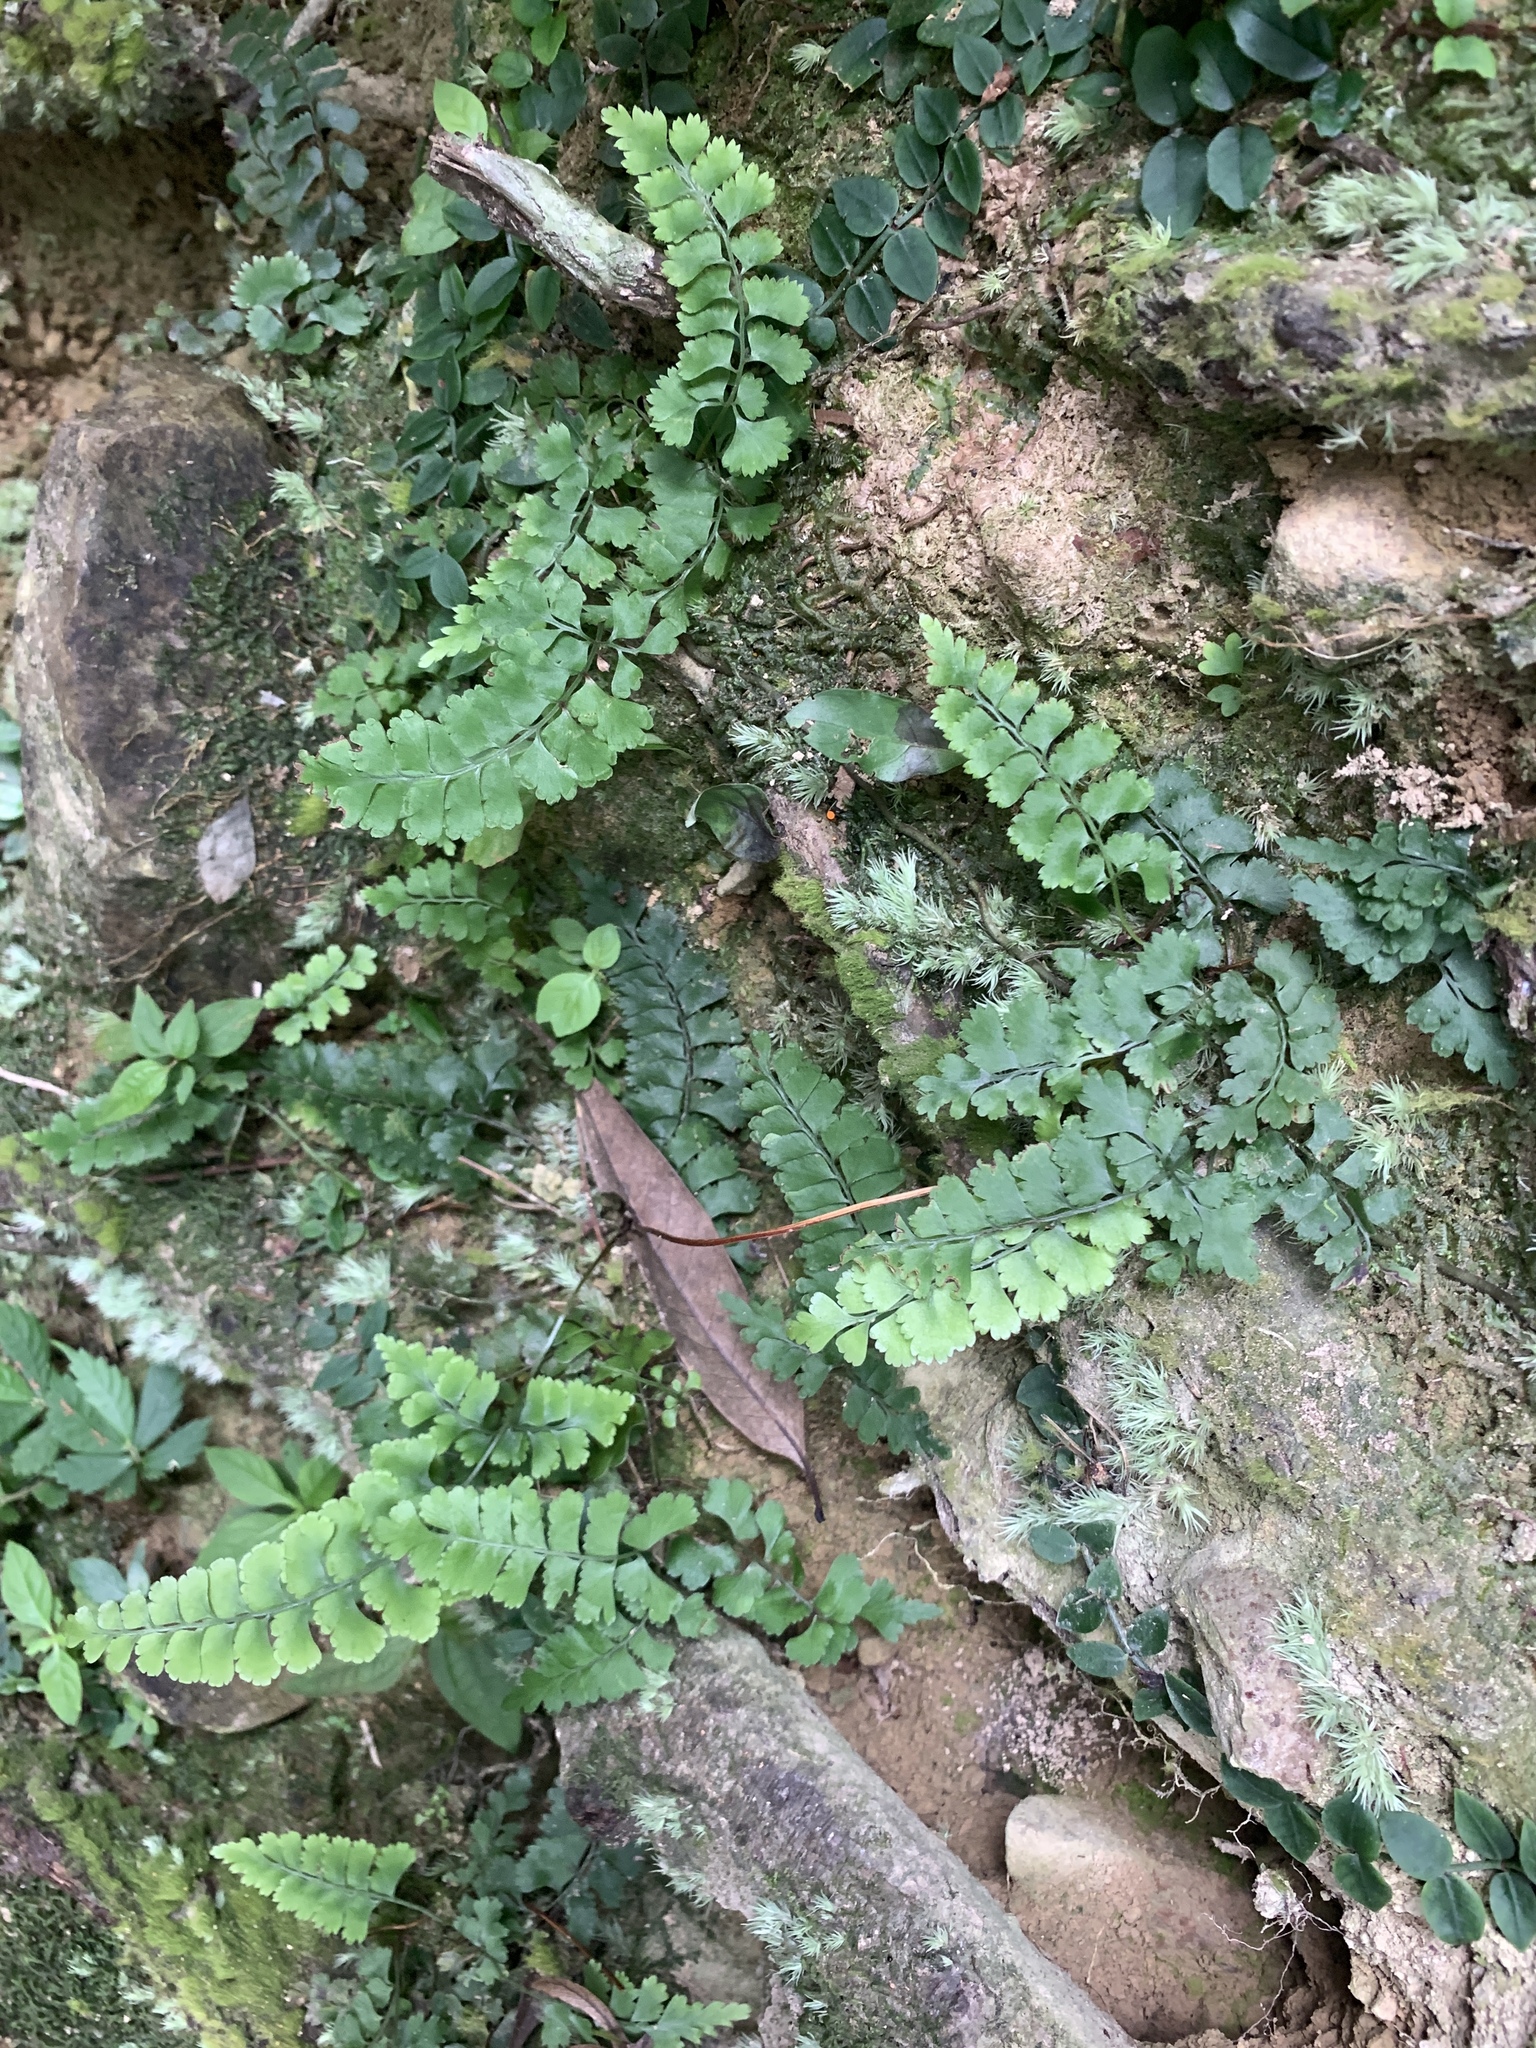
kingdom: Plantae
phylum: Tracheophyta
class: Polypodiopsida
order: Polypodiales
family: Lindsaeaceae
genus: Lindsaea
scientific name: Lindsaea chienii
